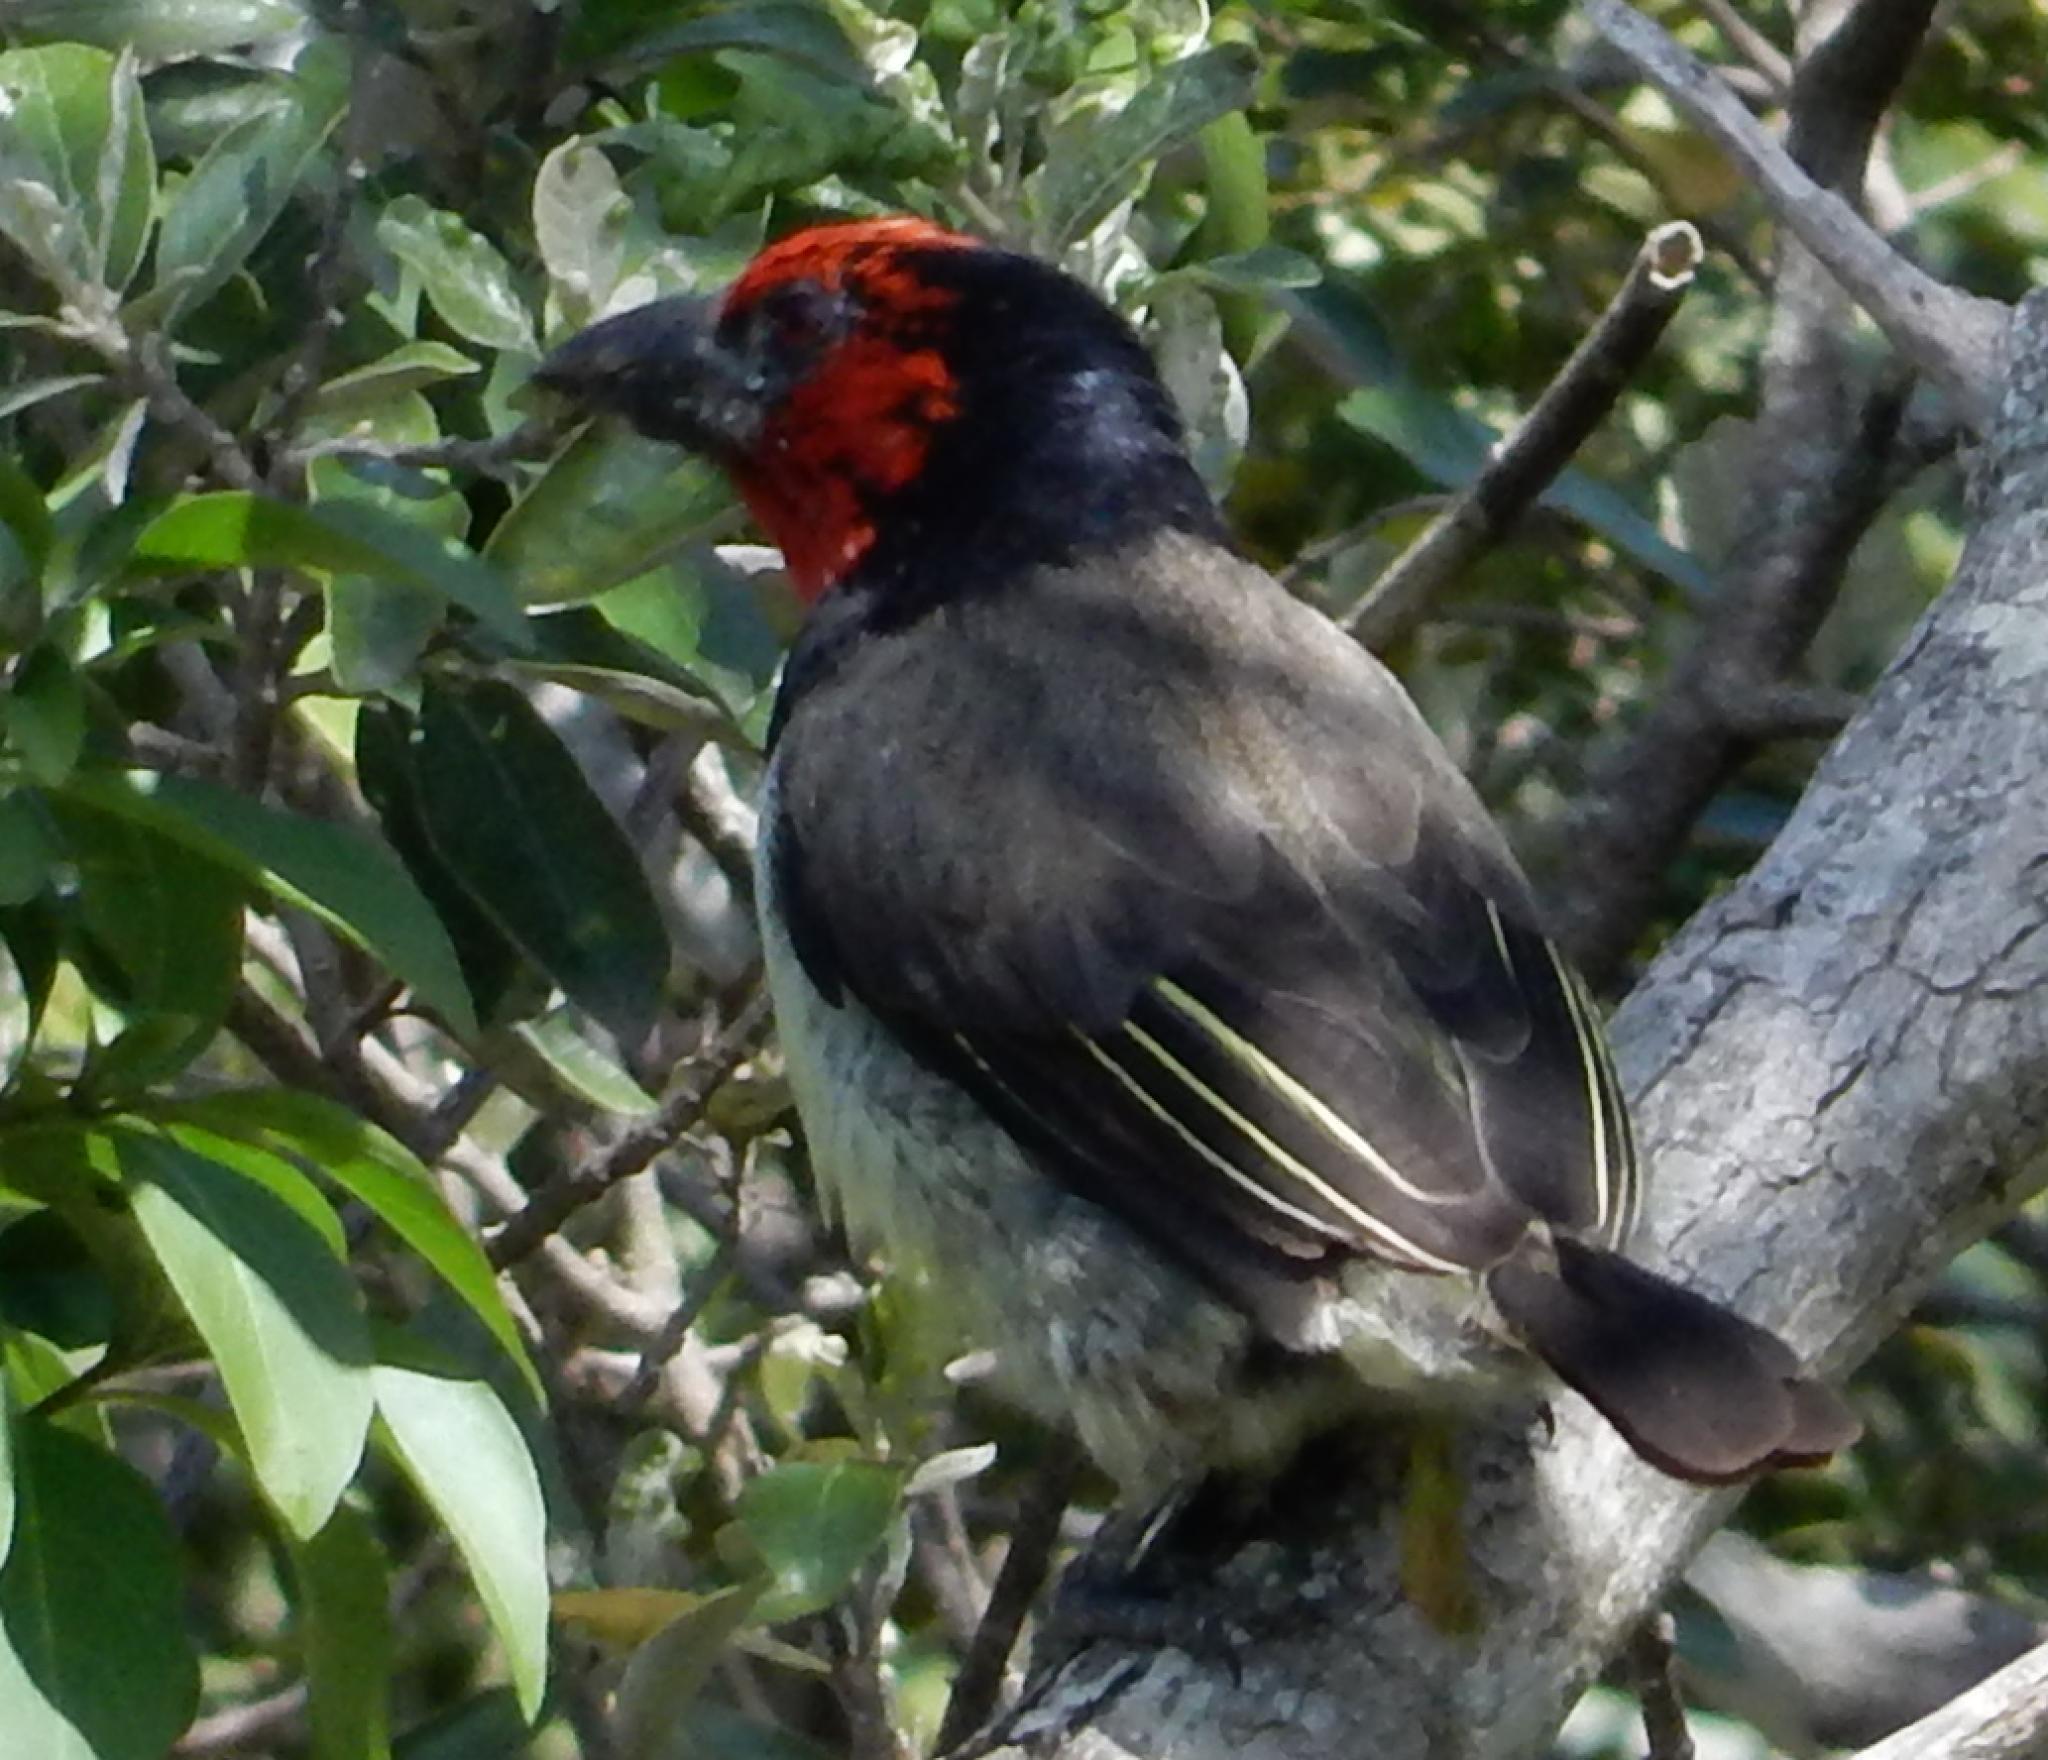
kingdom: Animalia
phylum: Chordata
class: Aves
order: Piciformes
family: Lybiidae
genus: Lybius
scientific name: Lybius torquatus
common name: Black-collared barbet
